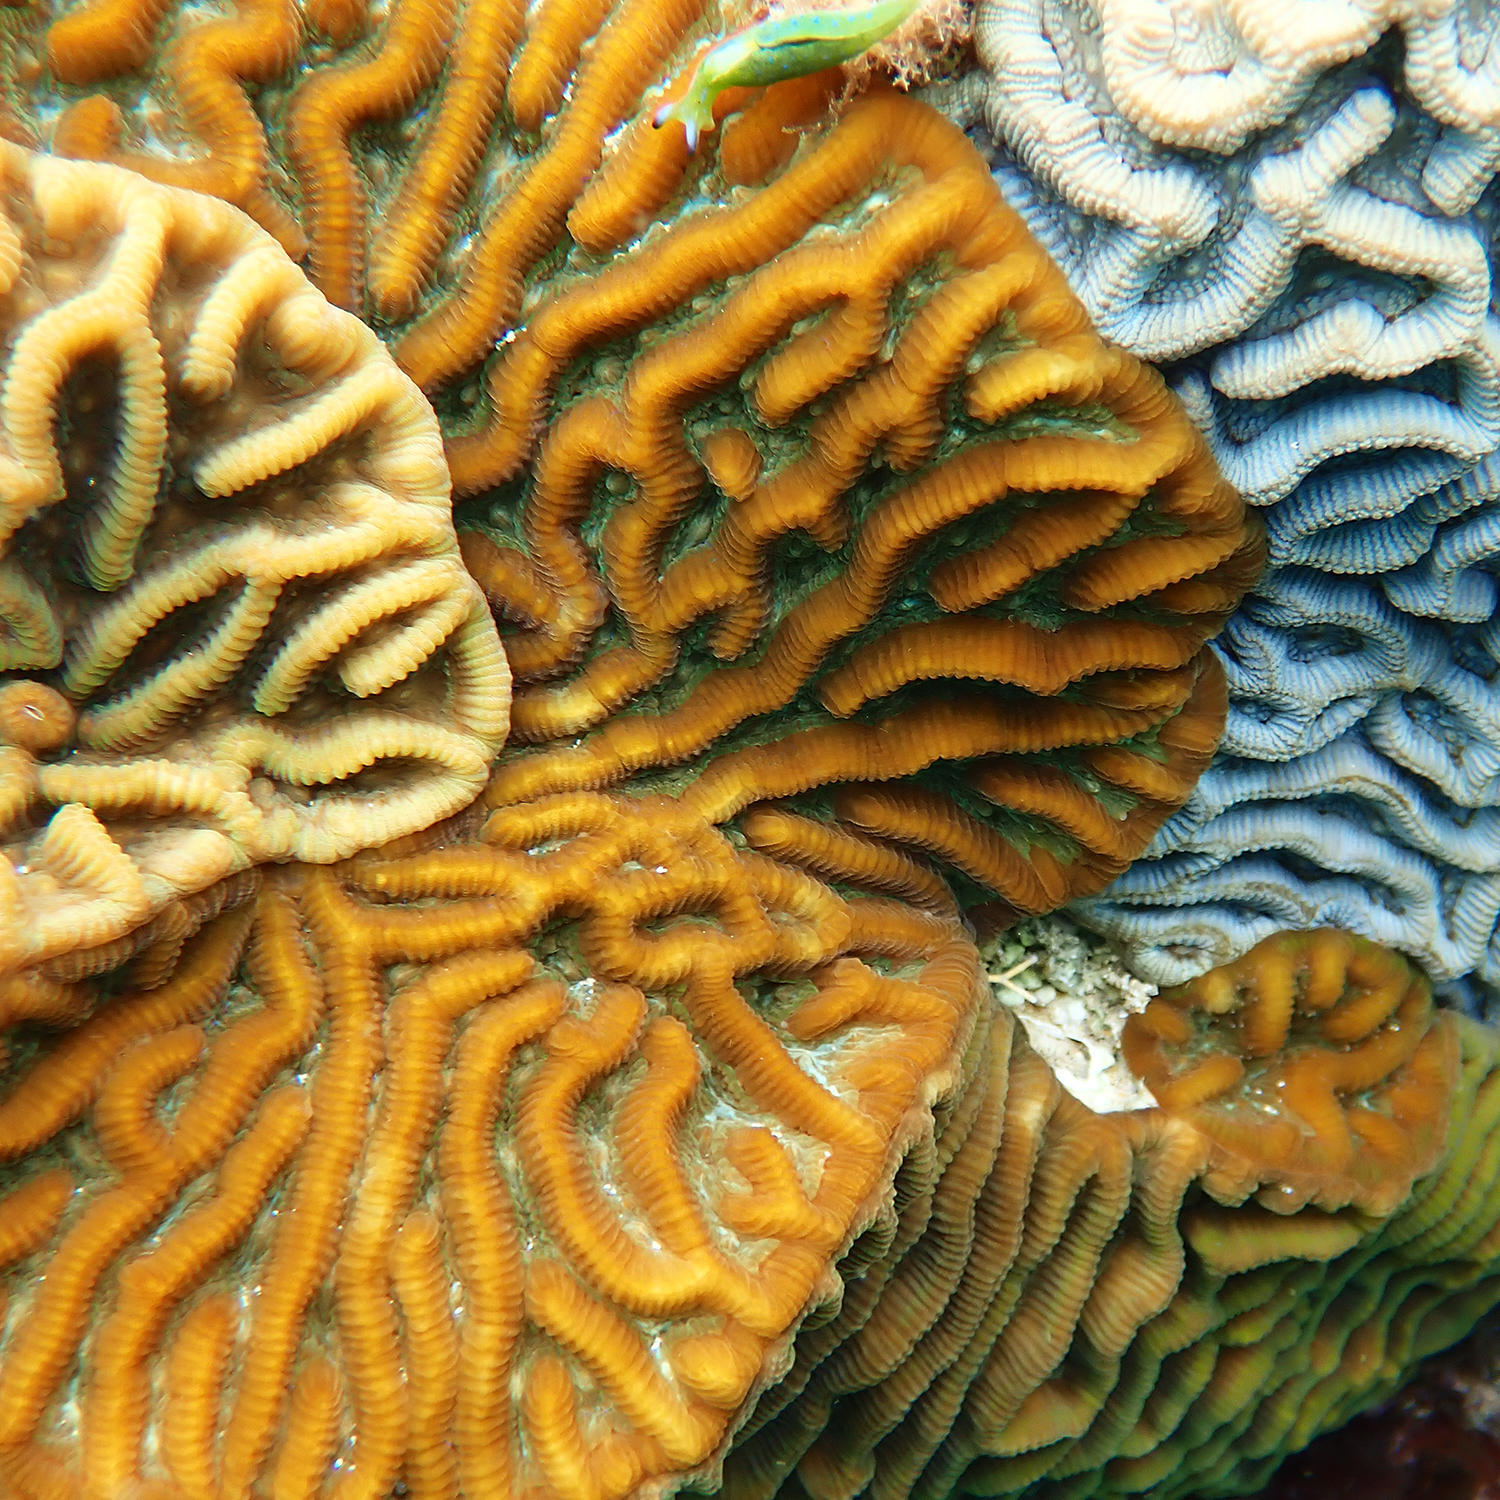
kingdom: Animalia
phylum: Cnidaria
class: Anthozoa
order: Scleractinia
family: Merulinidae
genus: Paragoniastrea
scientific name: Paragoniastrea australensis
